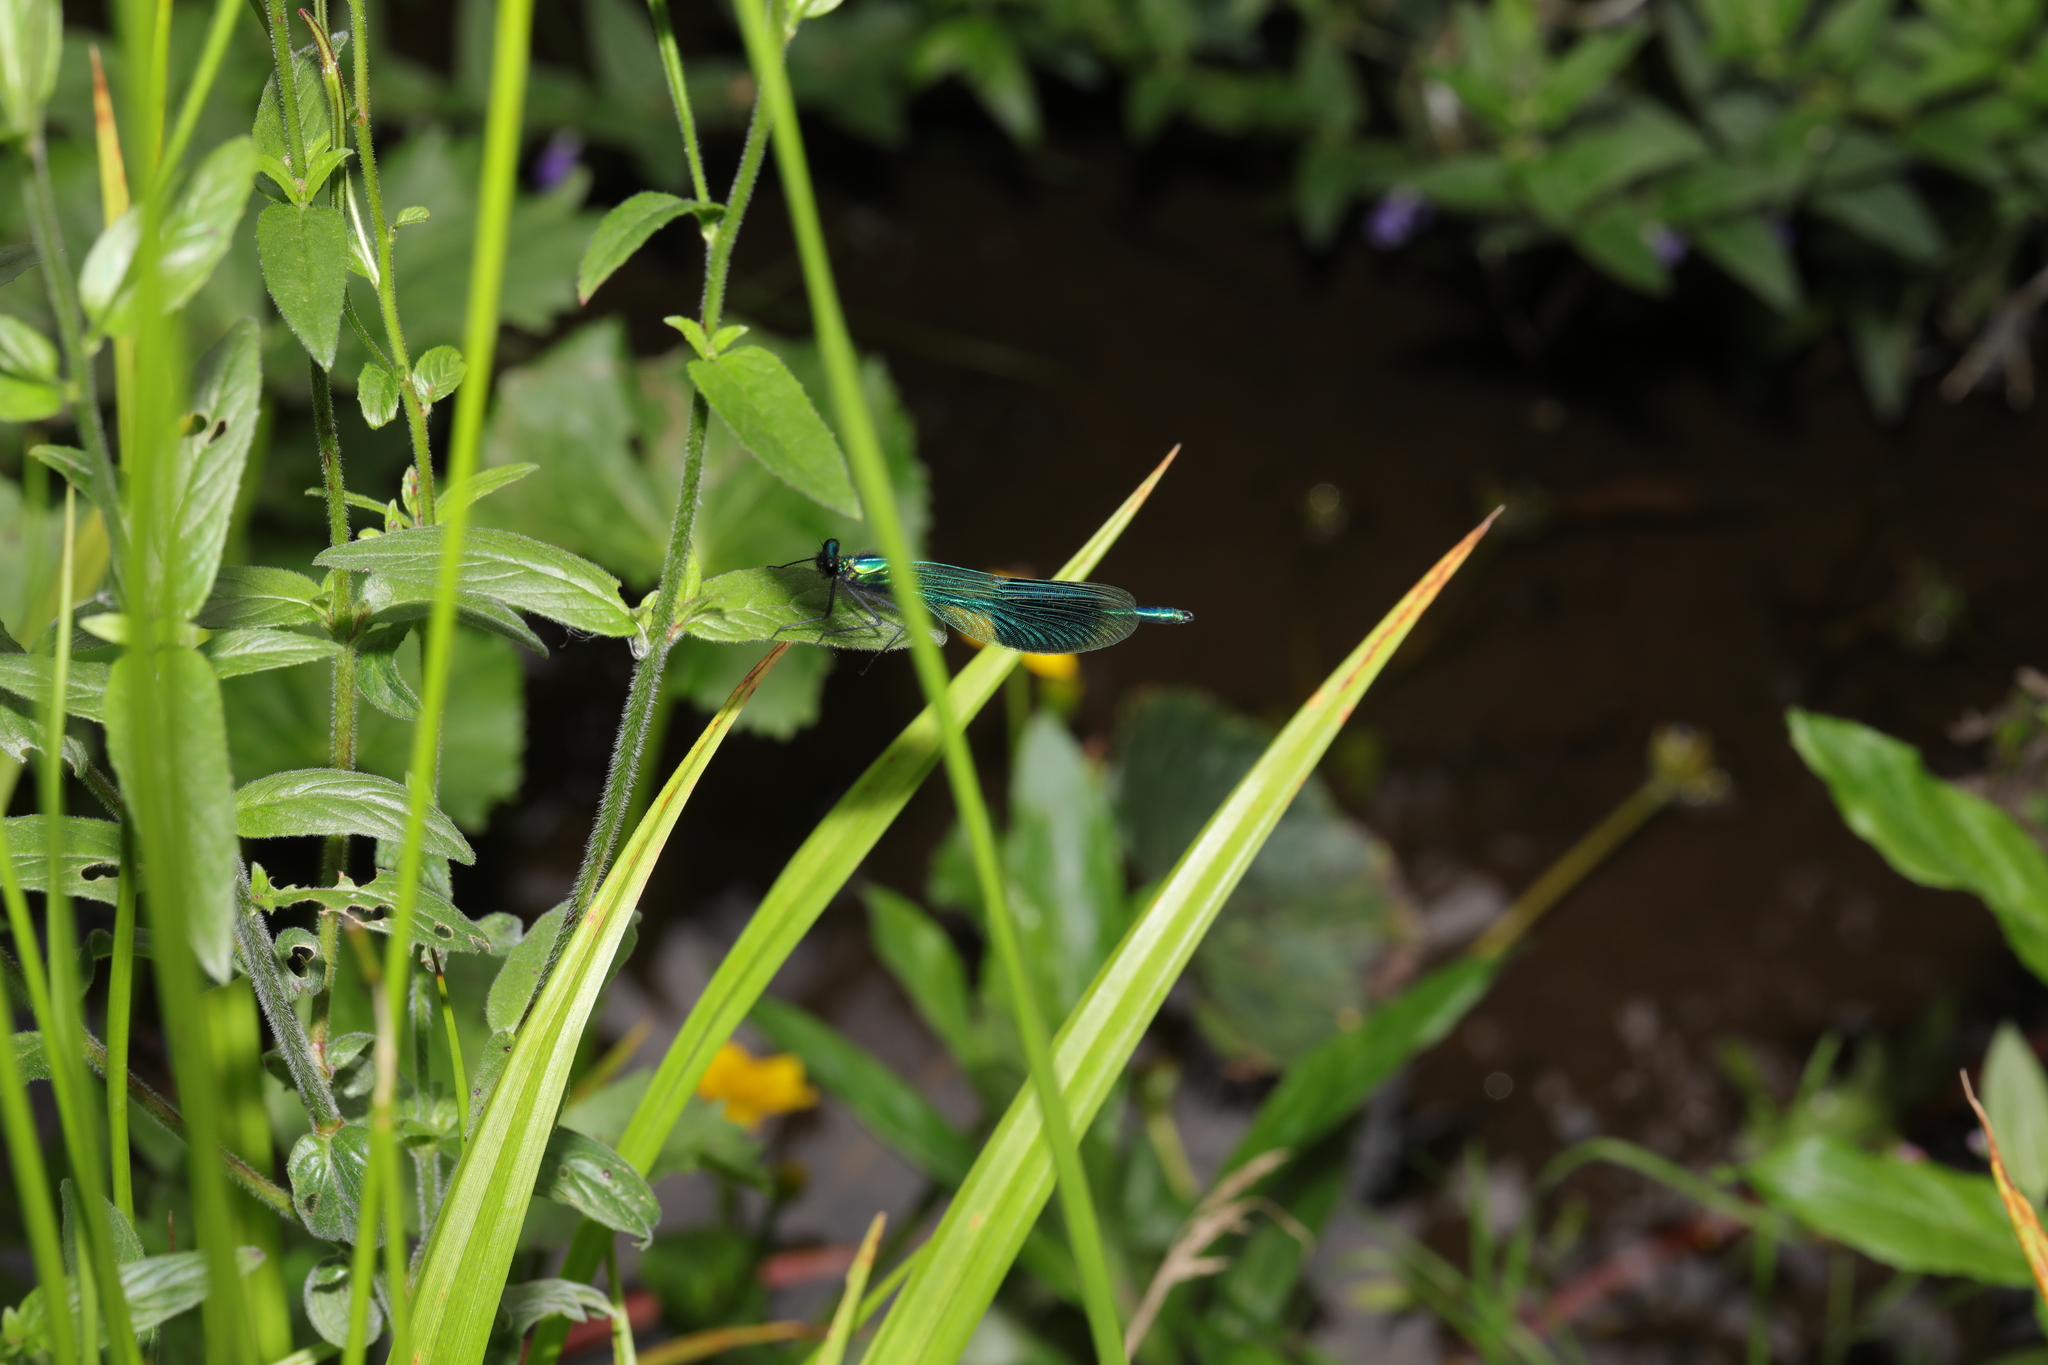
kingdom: Animalia
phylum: Arthropoda
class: Insecta
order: Odonata
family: Calopterygidae
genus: Calopteryx
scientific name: Calopteryx splendens
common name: Banded demoiselle
